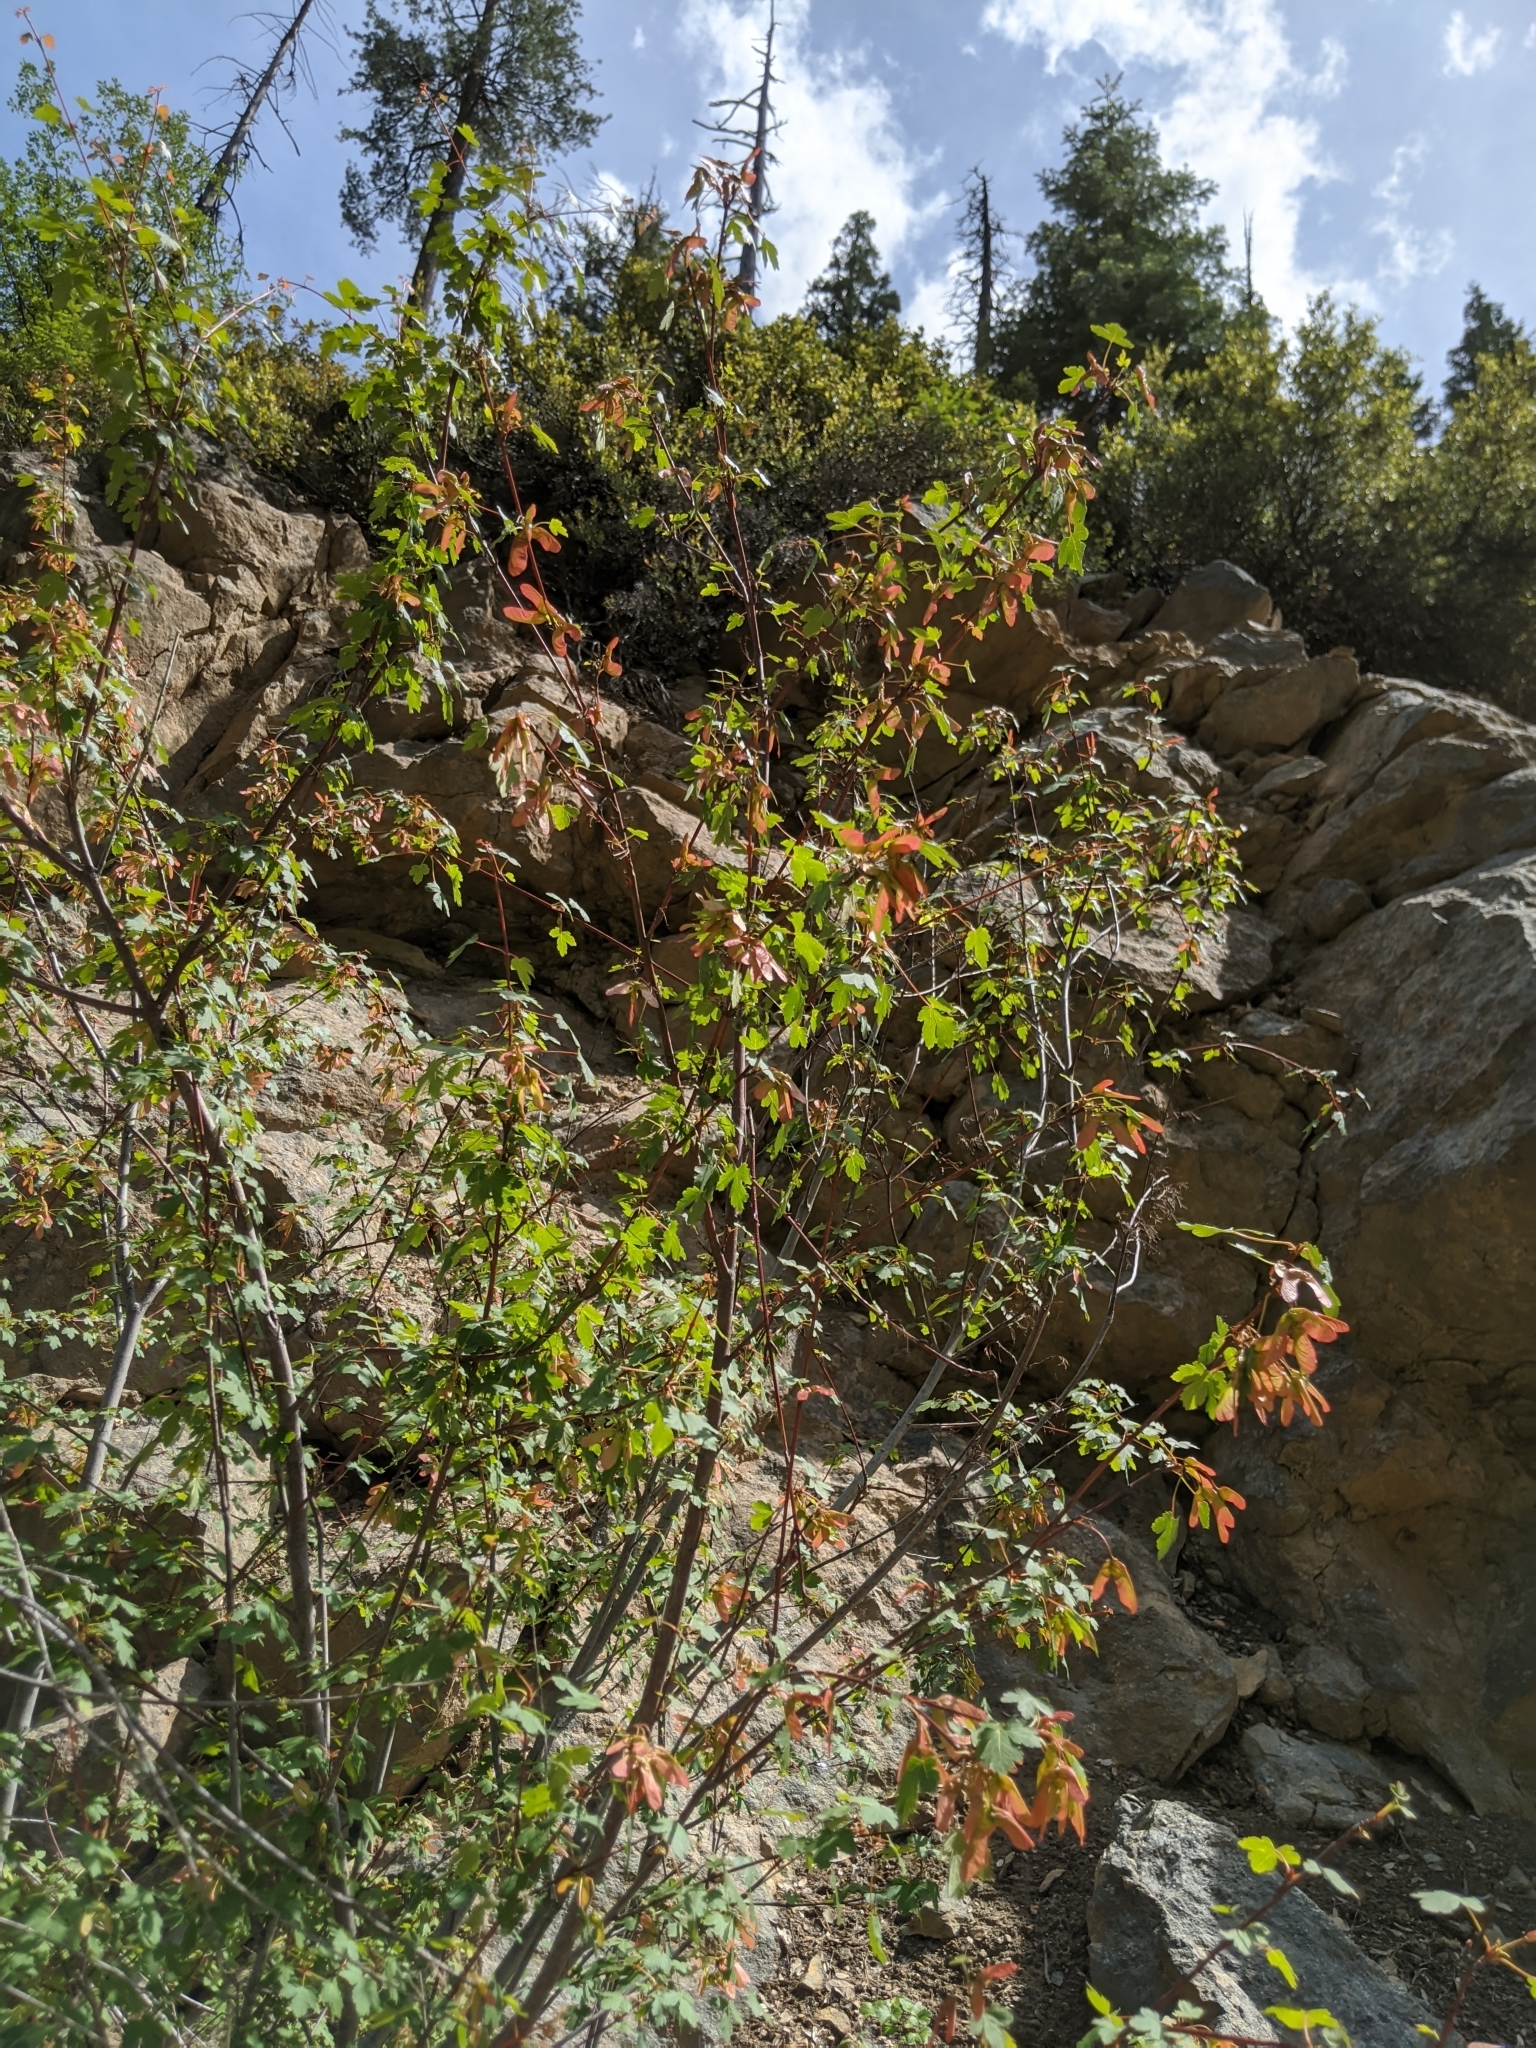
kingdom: Plantae
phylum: Tracheophyta
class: Magnoliopsida
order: Sapindales
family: Sapindaceae
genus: Acer
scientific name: Acer glabrum
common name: Rocky mountain maple
